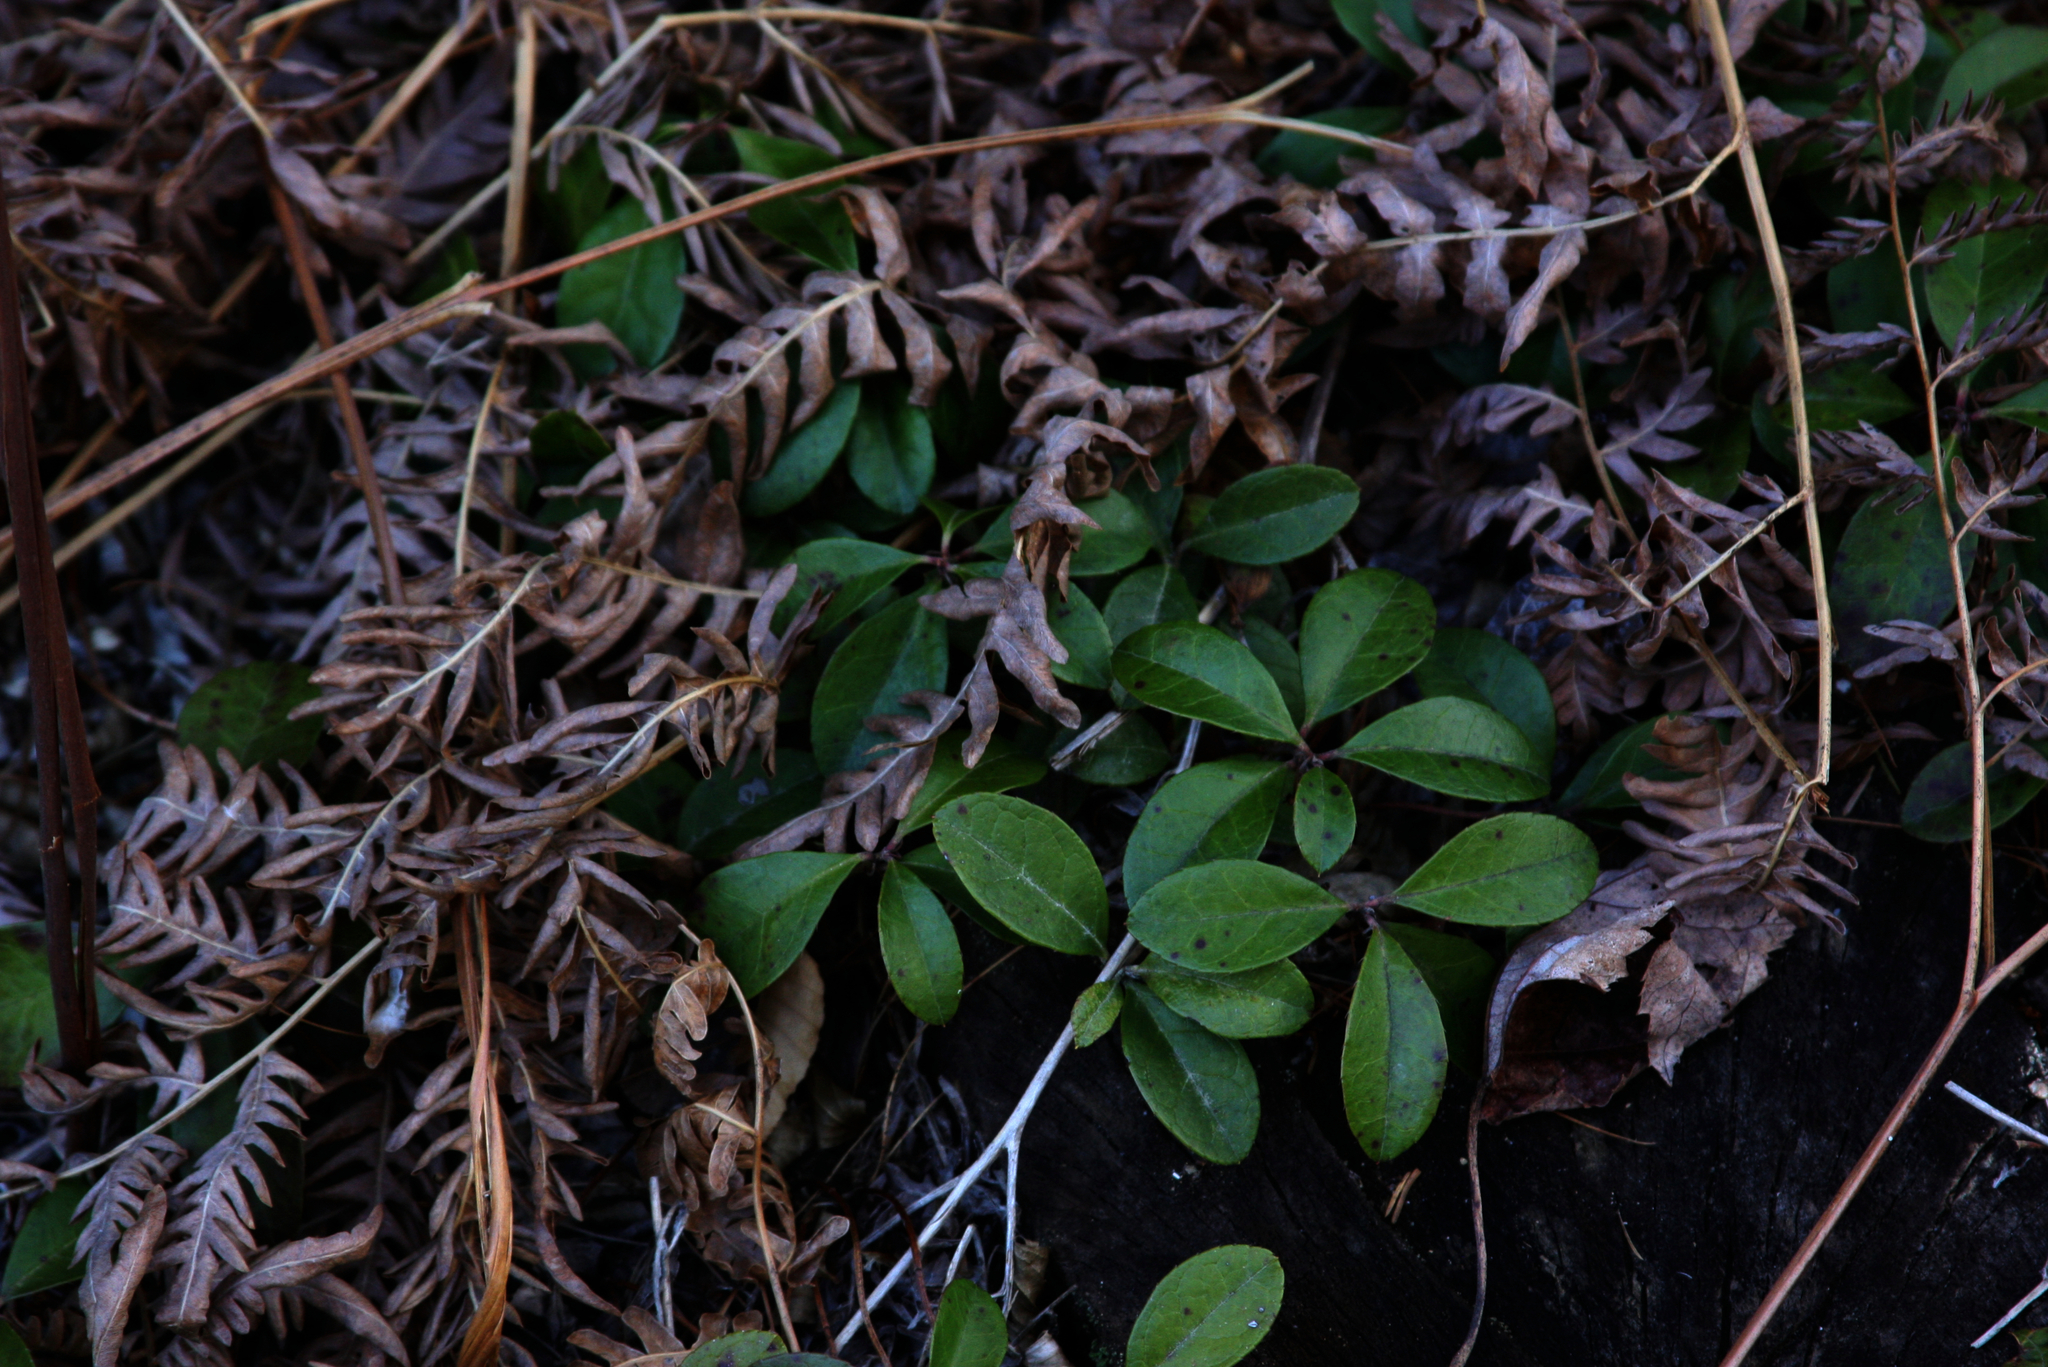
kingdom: Plantae
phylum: Tracheophyta
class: Polypodiopsida
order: Polypodiales
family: Dennstaedtiaceae
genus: Pteridium
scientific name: Pteridium aquilinum
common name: Bracken
